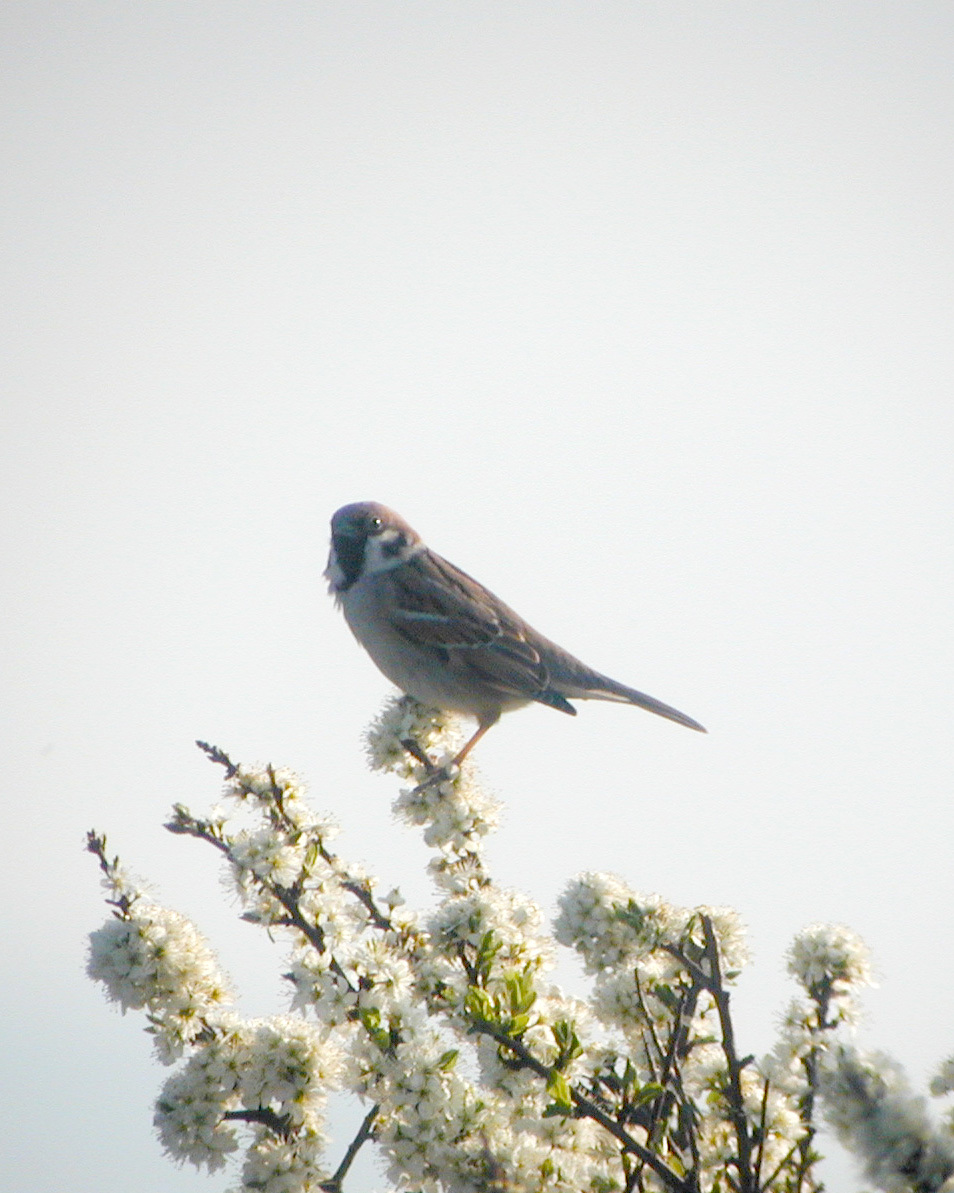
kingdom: Animalia
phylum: Chordata
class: Aves
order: Passeriformes
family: Passeridae
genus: Passer
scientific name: Passer montanus
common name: Eurasian tree sparrow
